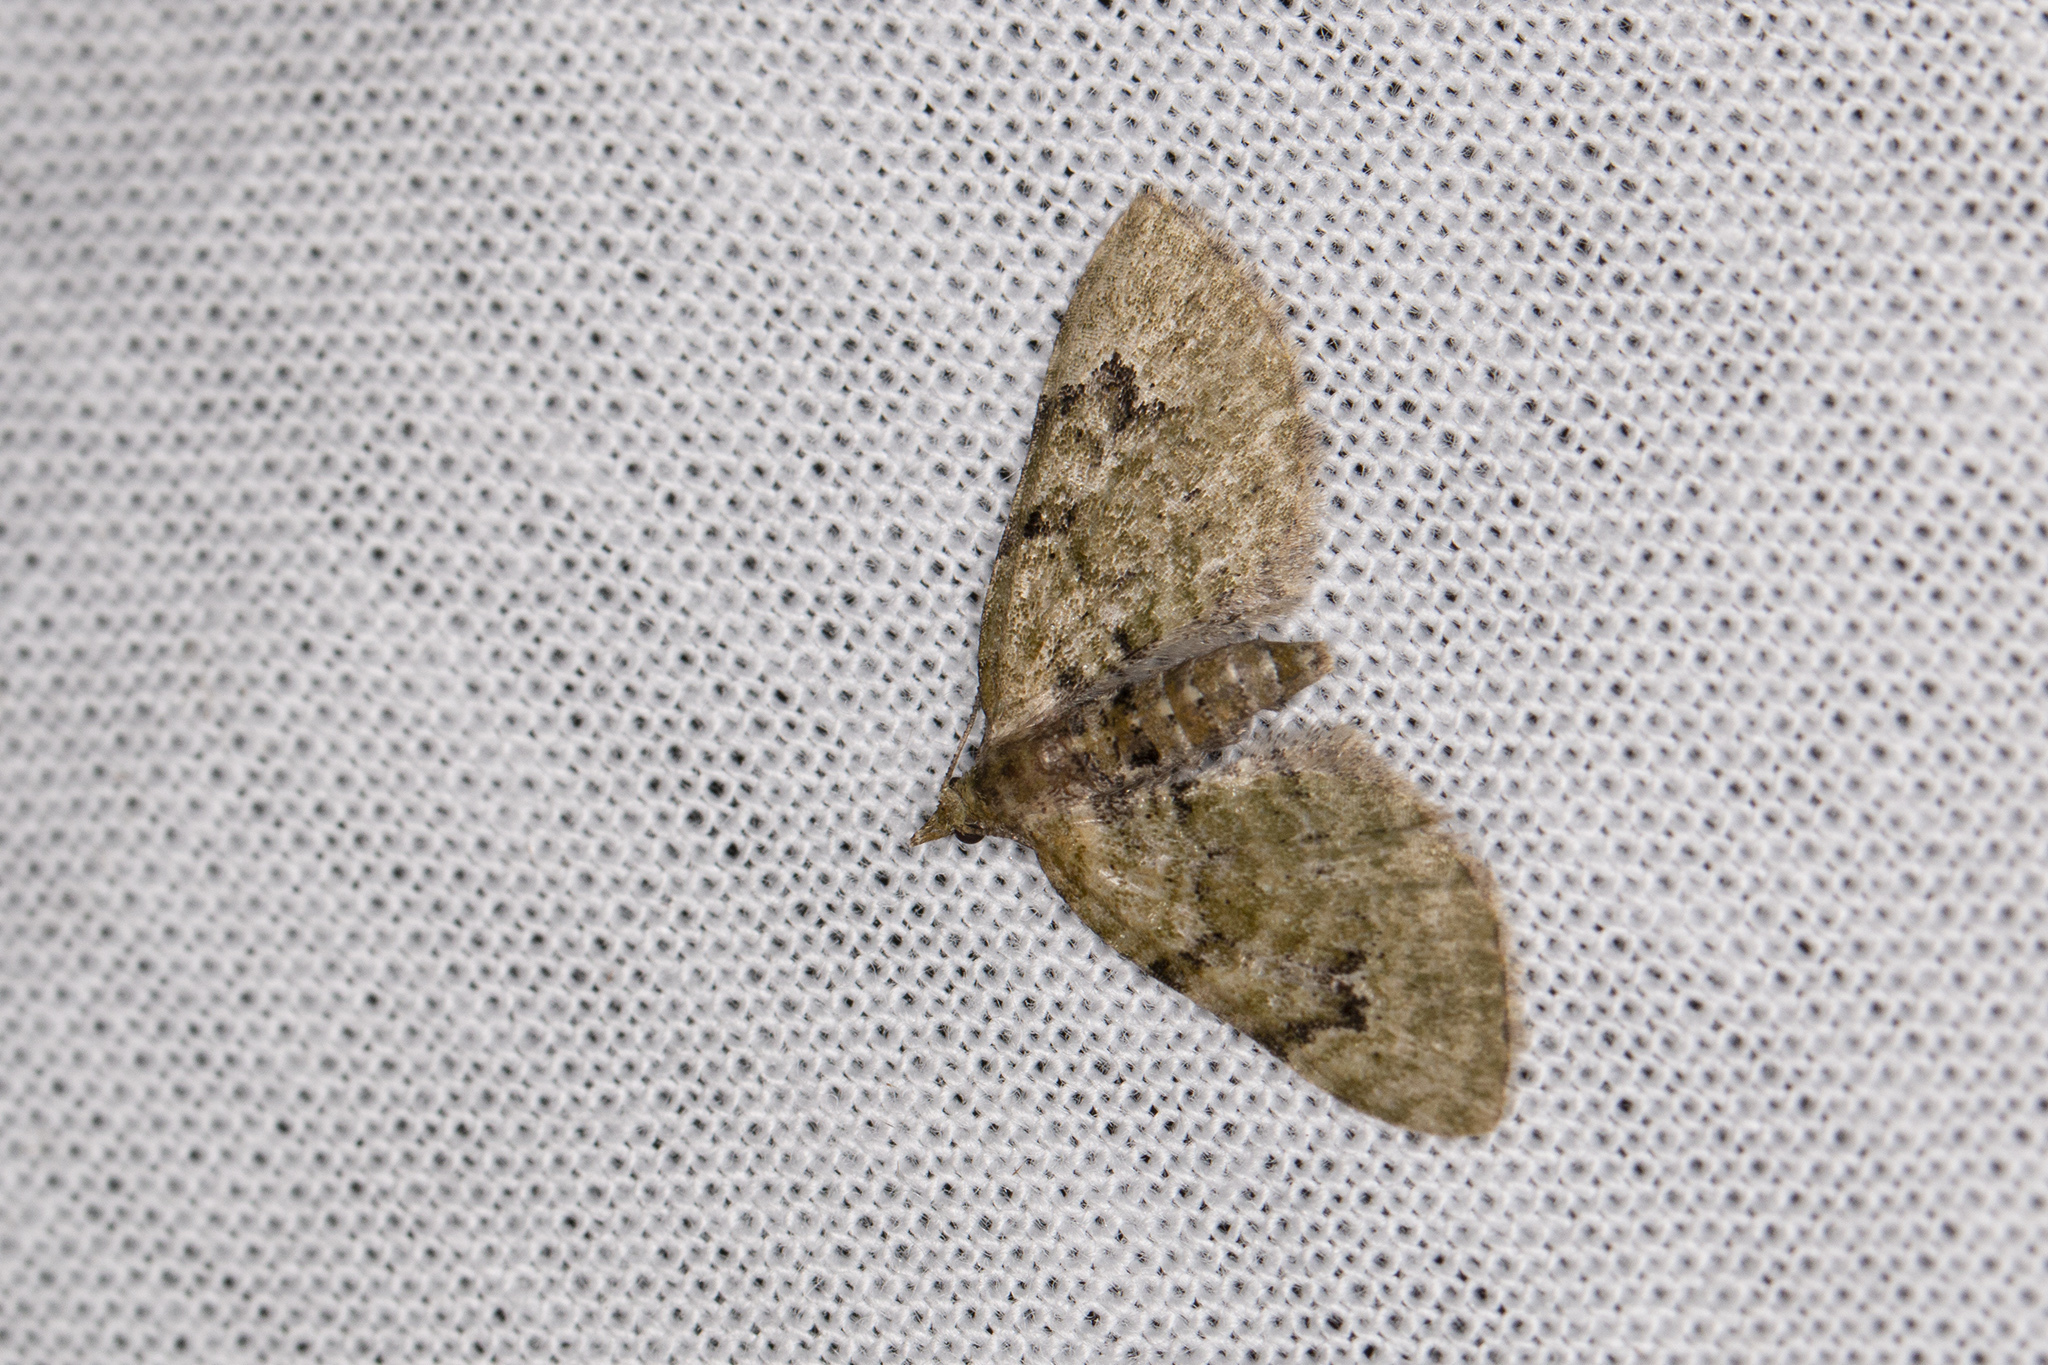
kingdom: Animalia
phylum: Arthropoda
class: Insecta
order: Lepidoptera
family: Geometridae
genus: Chloroclystis
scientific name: Chloroclystis v-ata
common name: V-pug
